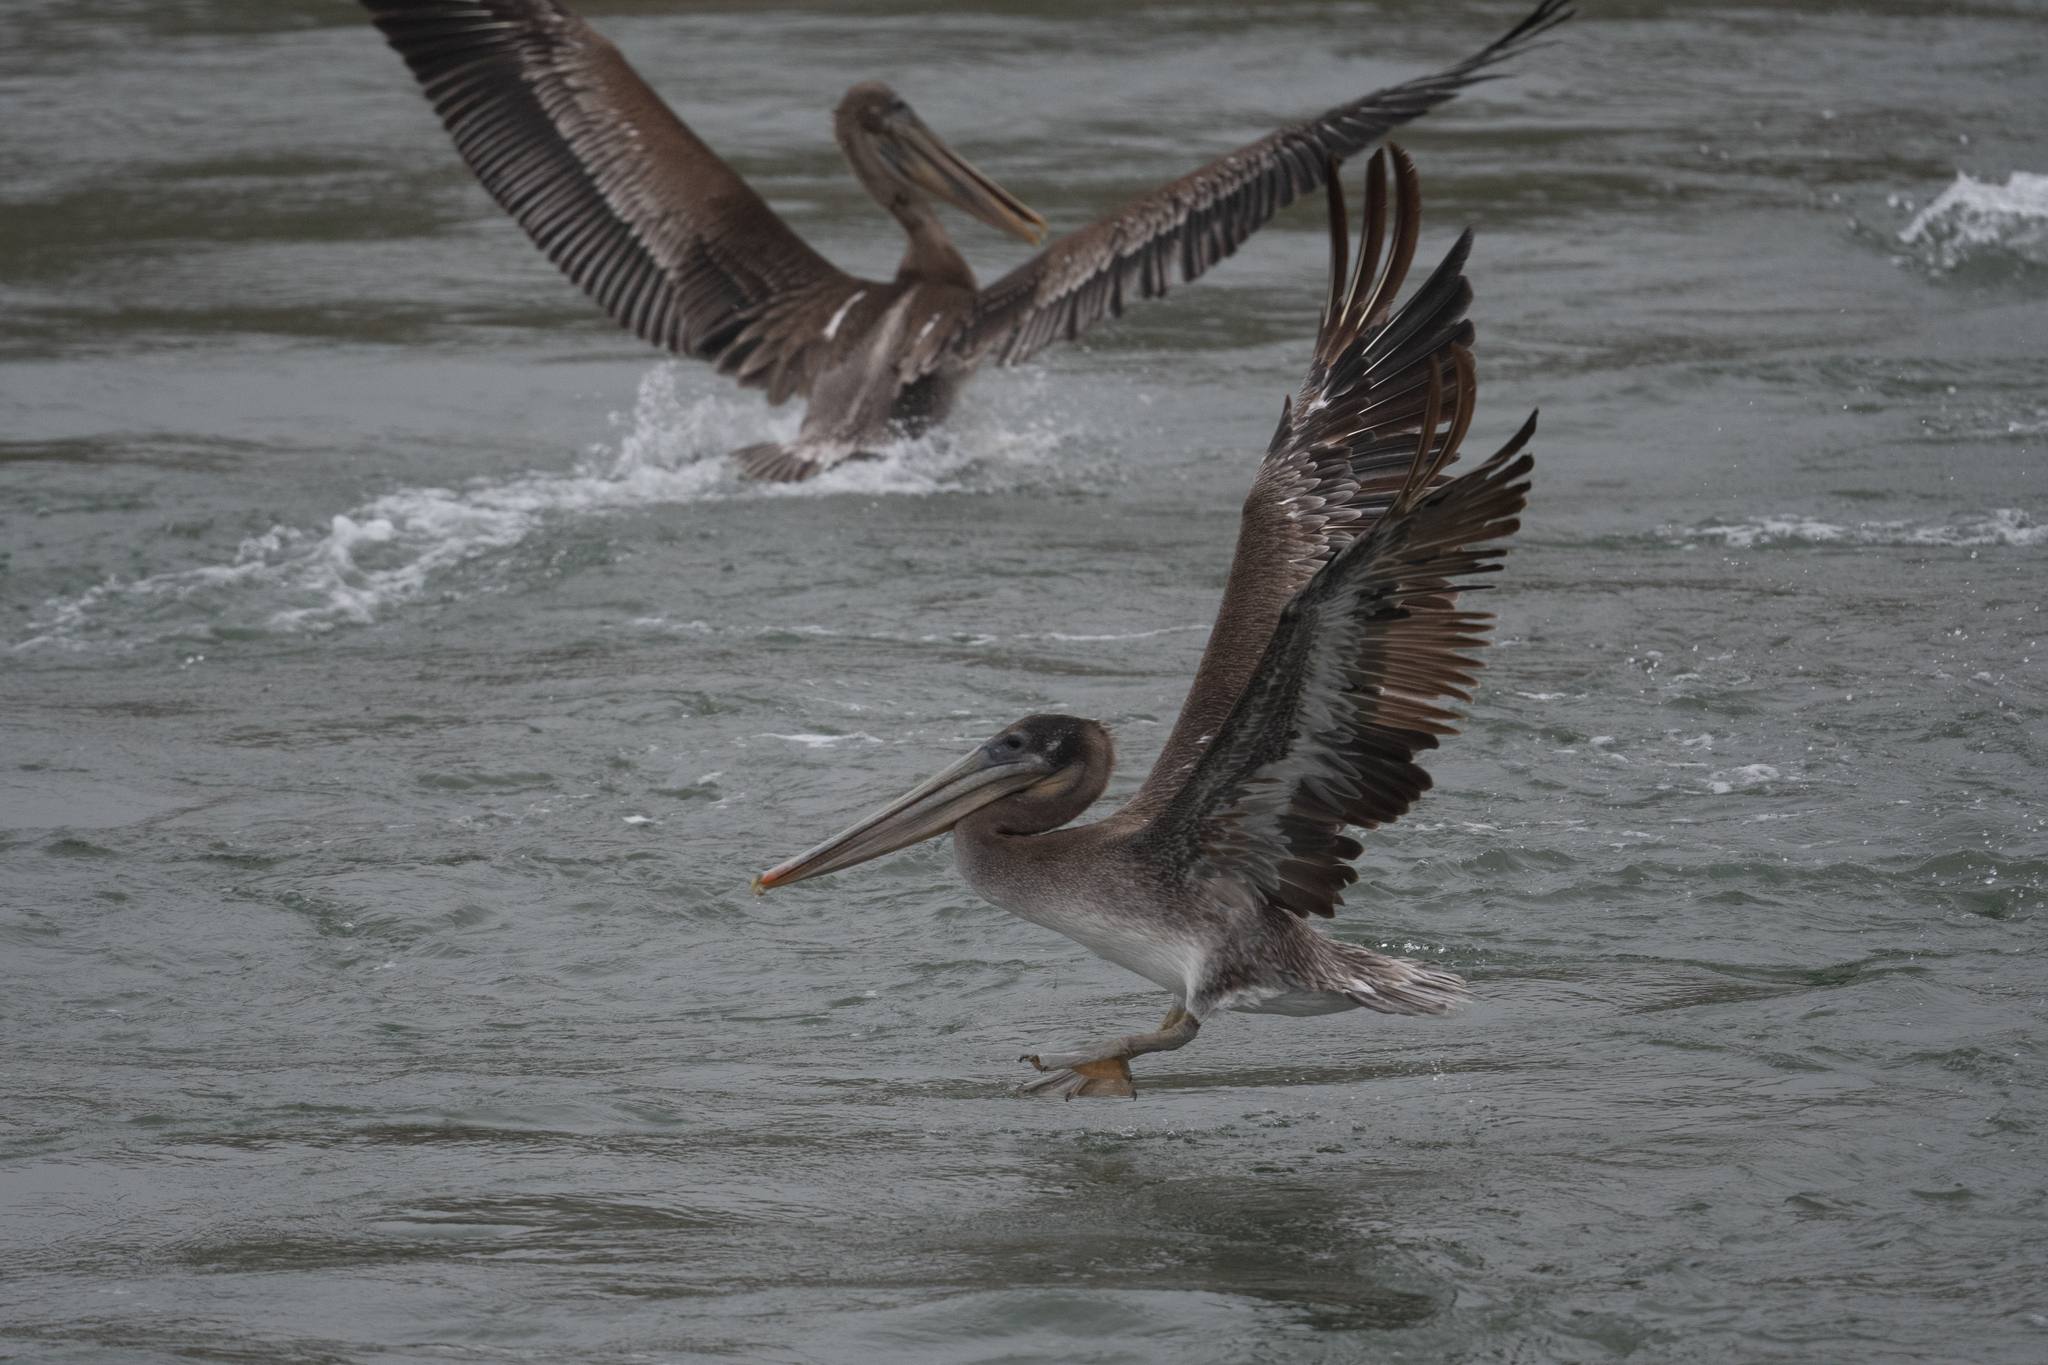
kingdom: Animalia
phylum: Chordata
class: Aves
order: Pelecaniformes
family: Pelecanidae
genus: Pelecanus
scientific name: Pelecanus occidentalis
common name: Brown pelican
